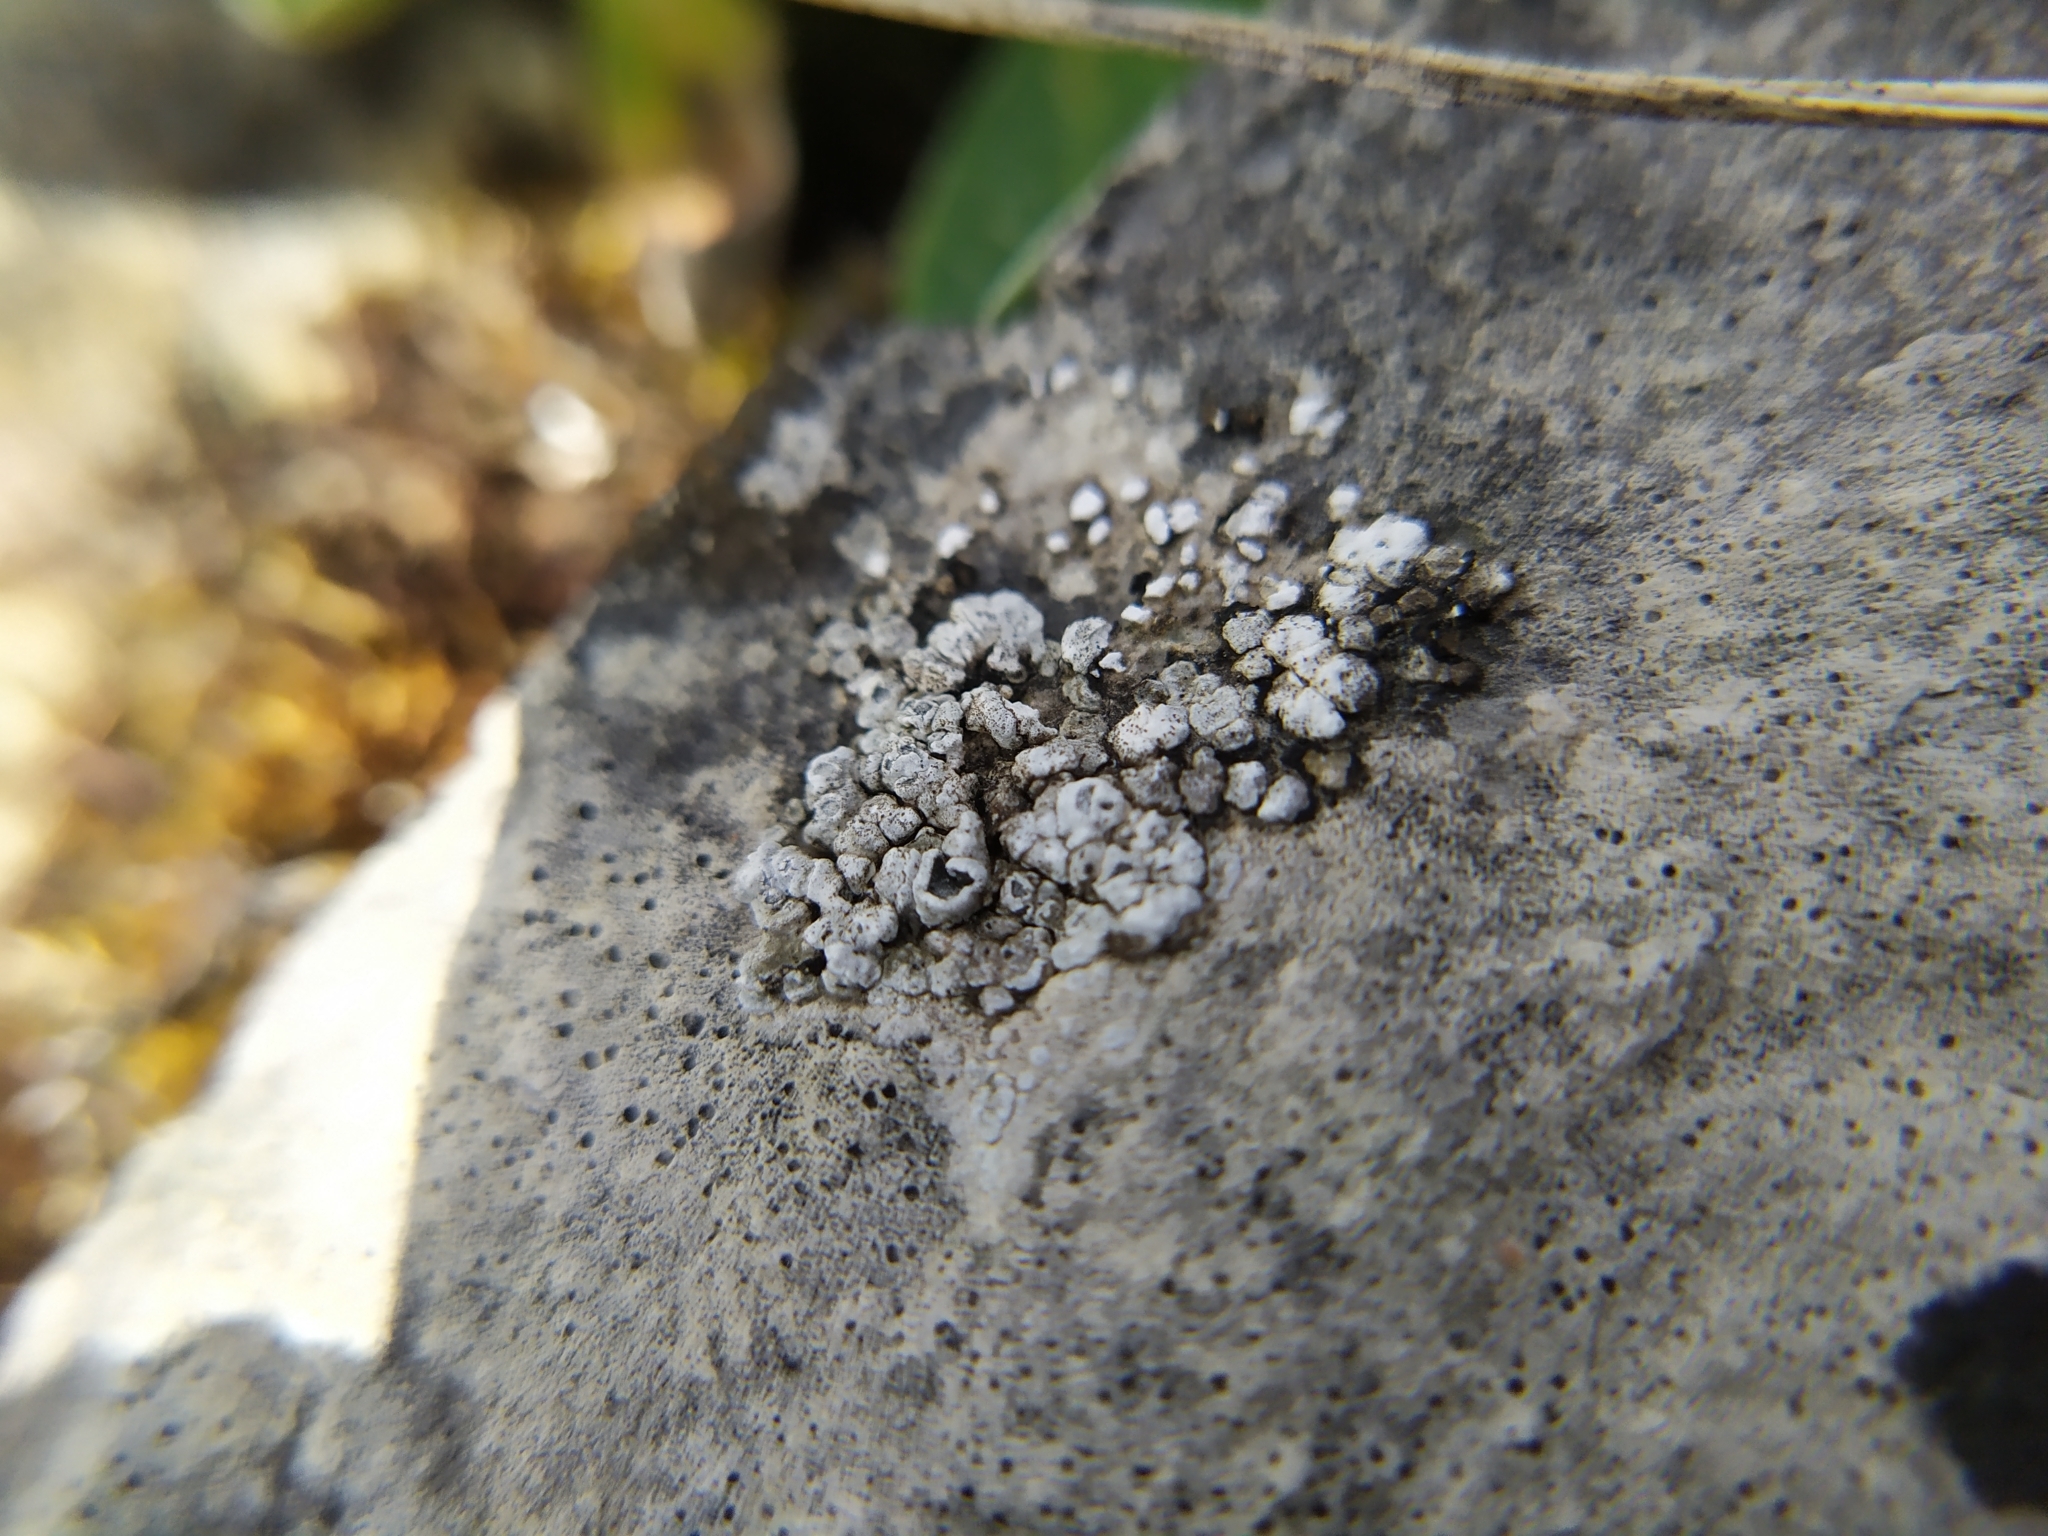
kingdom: Fungi
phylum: Ascomycota
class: Lecanoromycetes
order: Pertusariales
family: Megasporaceae
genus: Circinaria
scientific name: Circinaria contorta
